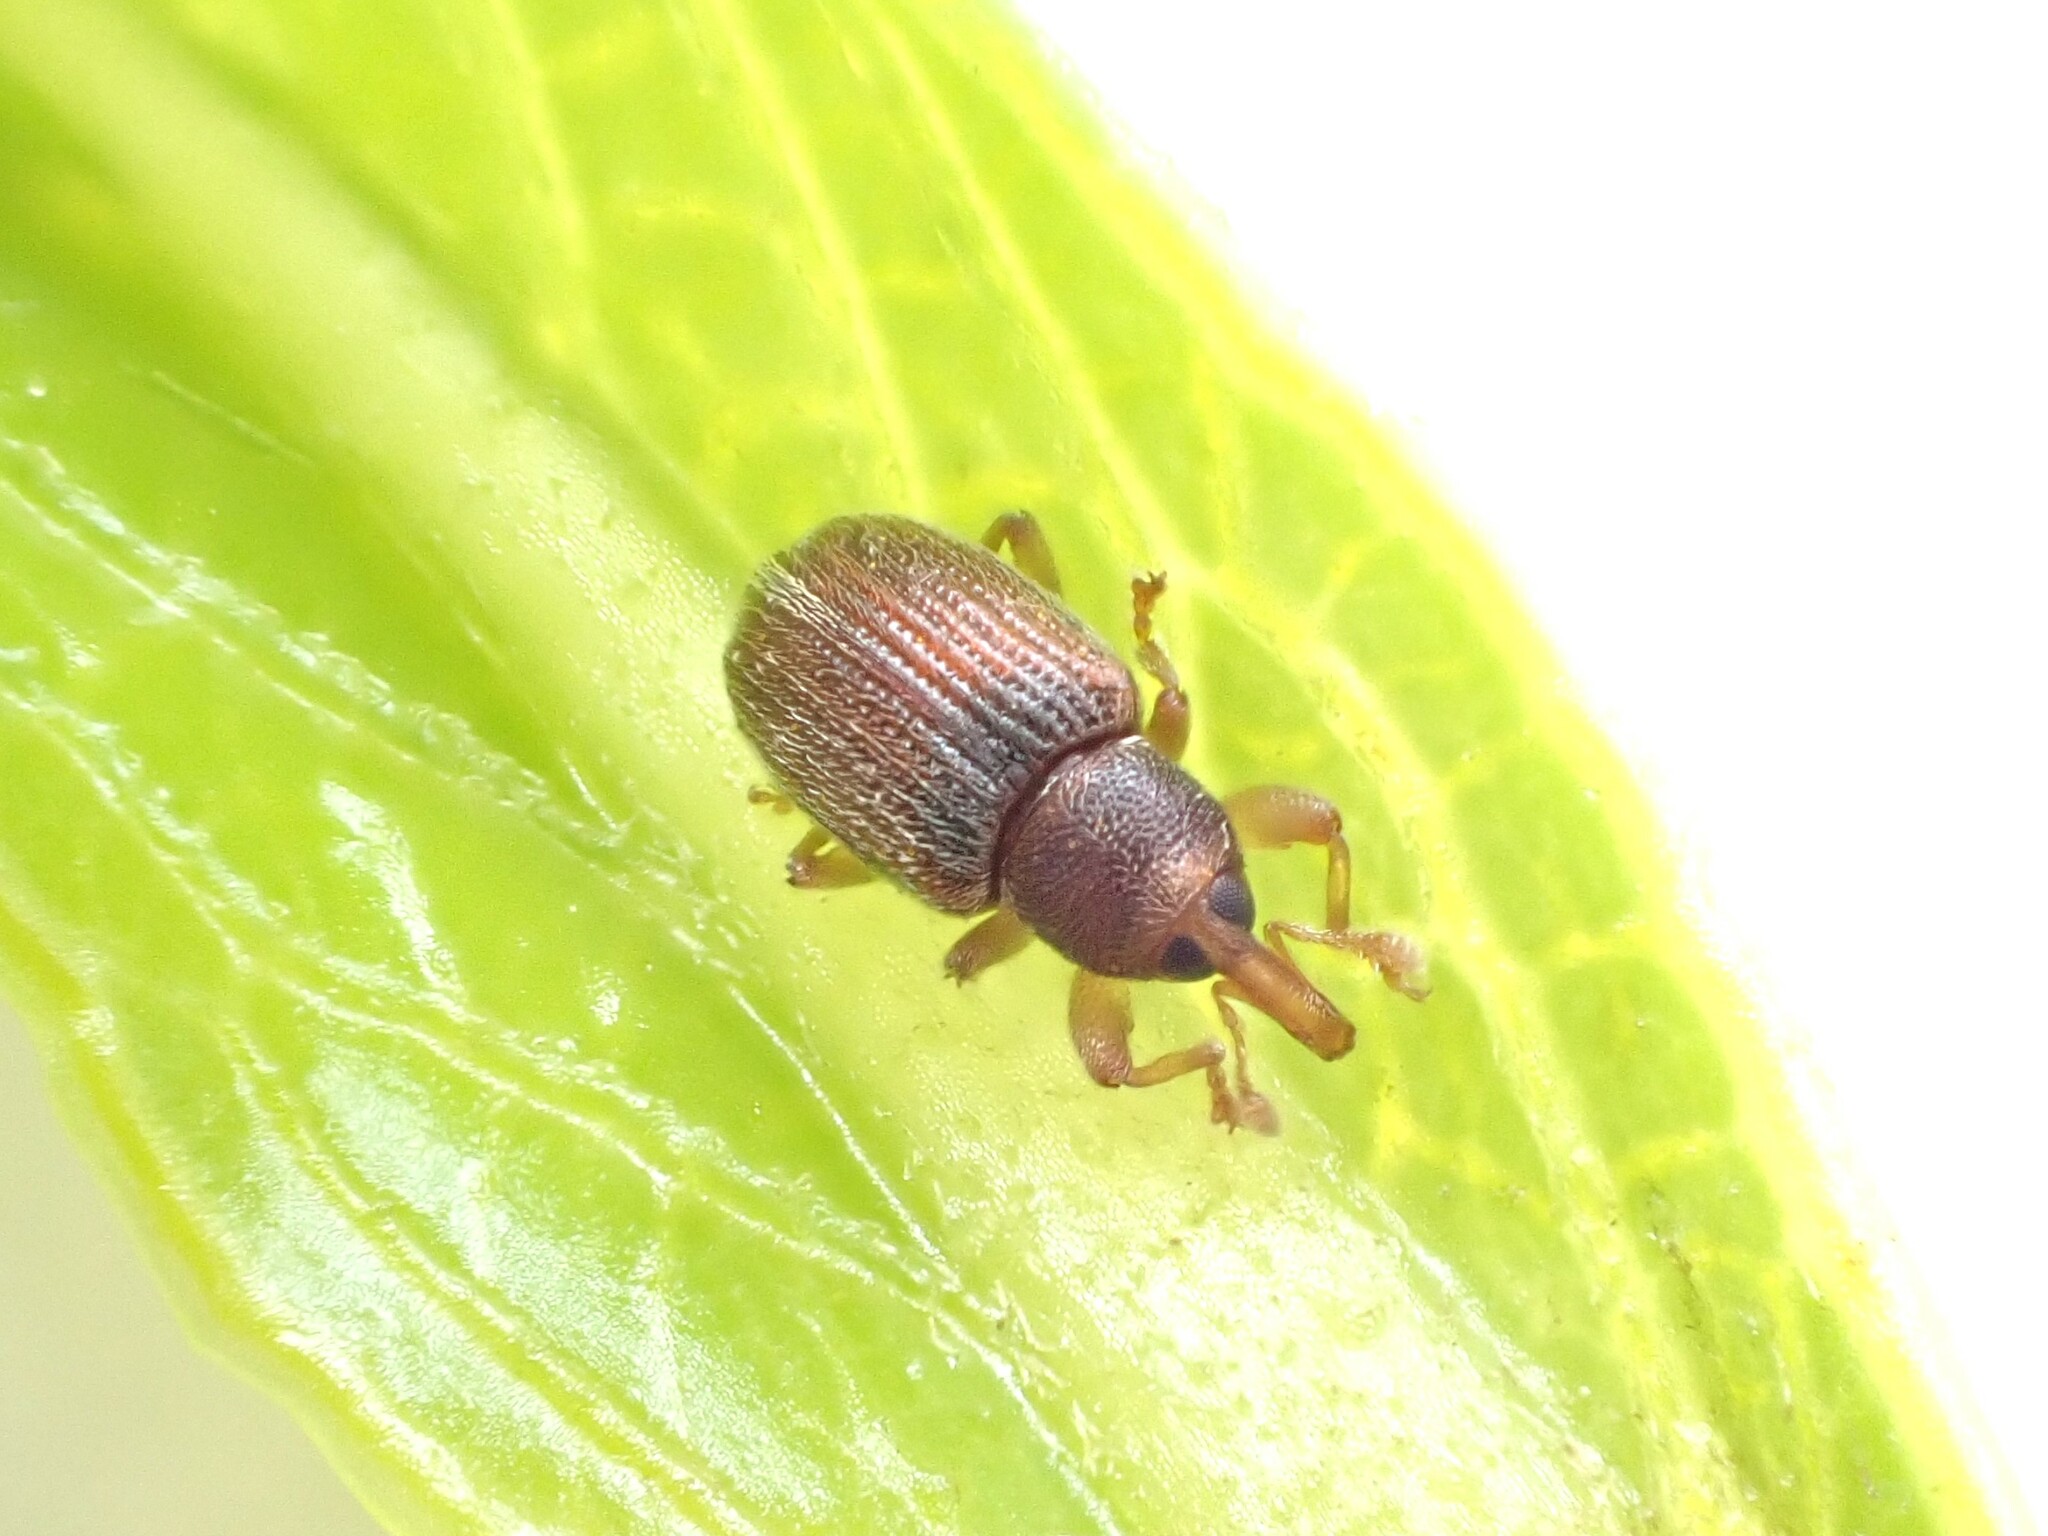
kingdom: Animalia
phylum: Arthropoda
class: Insecta
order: Coleoptera
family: Curculionidae
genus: Aneuma
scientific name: Aneuma
